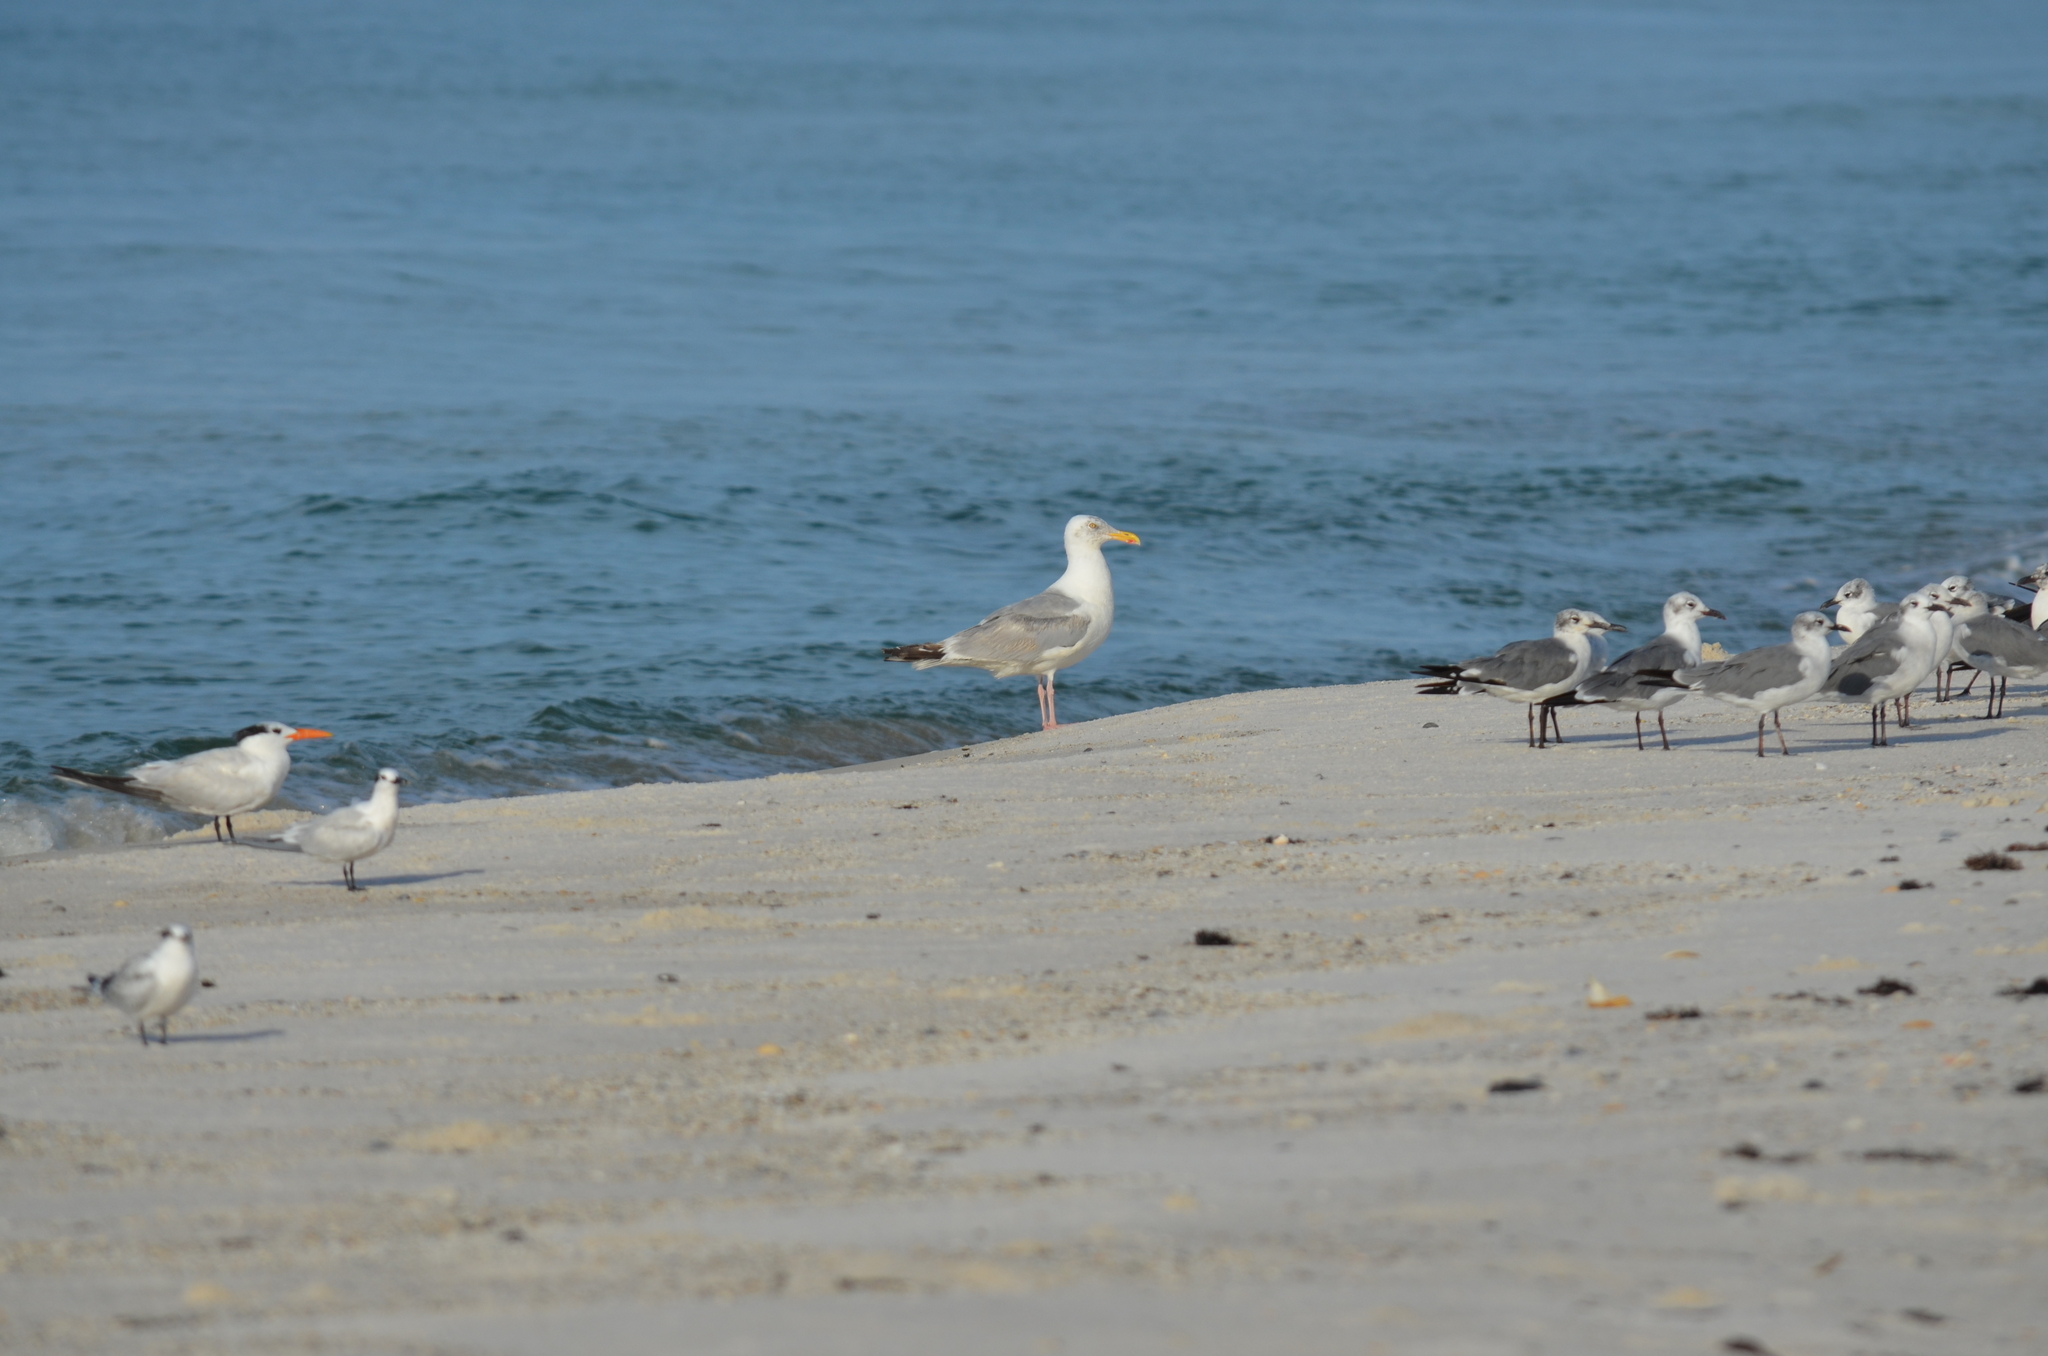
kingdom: Animalia
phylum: Chordata
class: Aves
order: Charadriiformes
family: Laridae
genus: Larus
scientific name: Larus argentatus
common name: Herring gull
